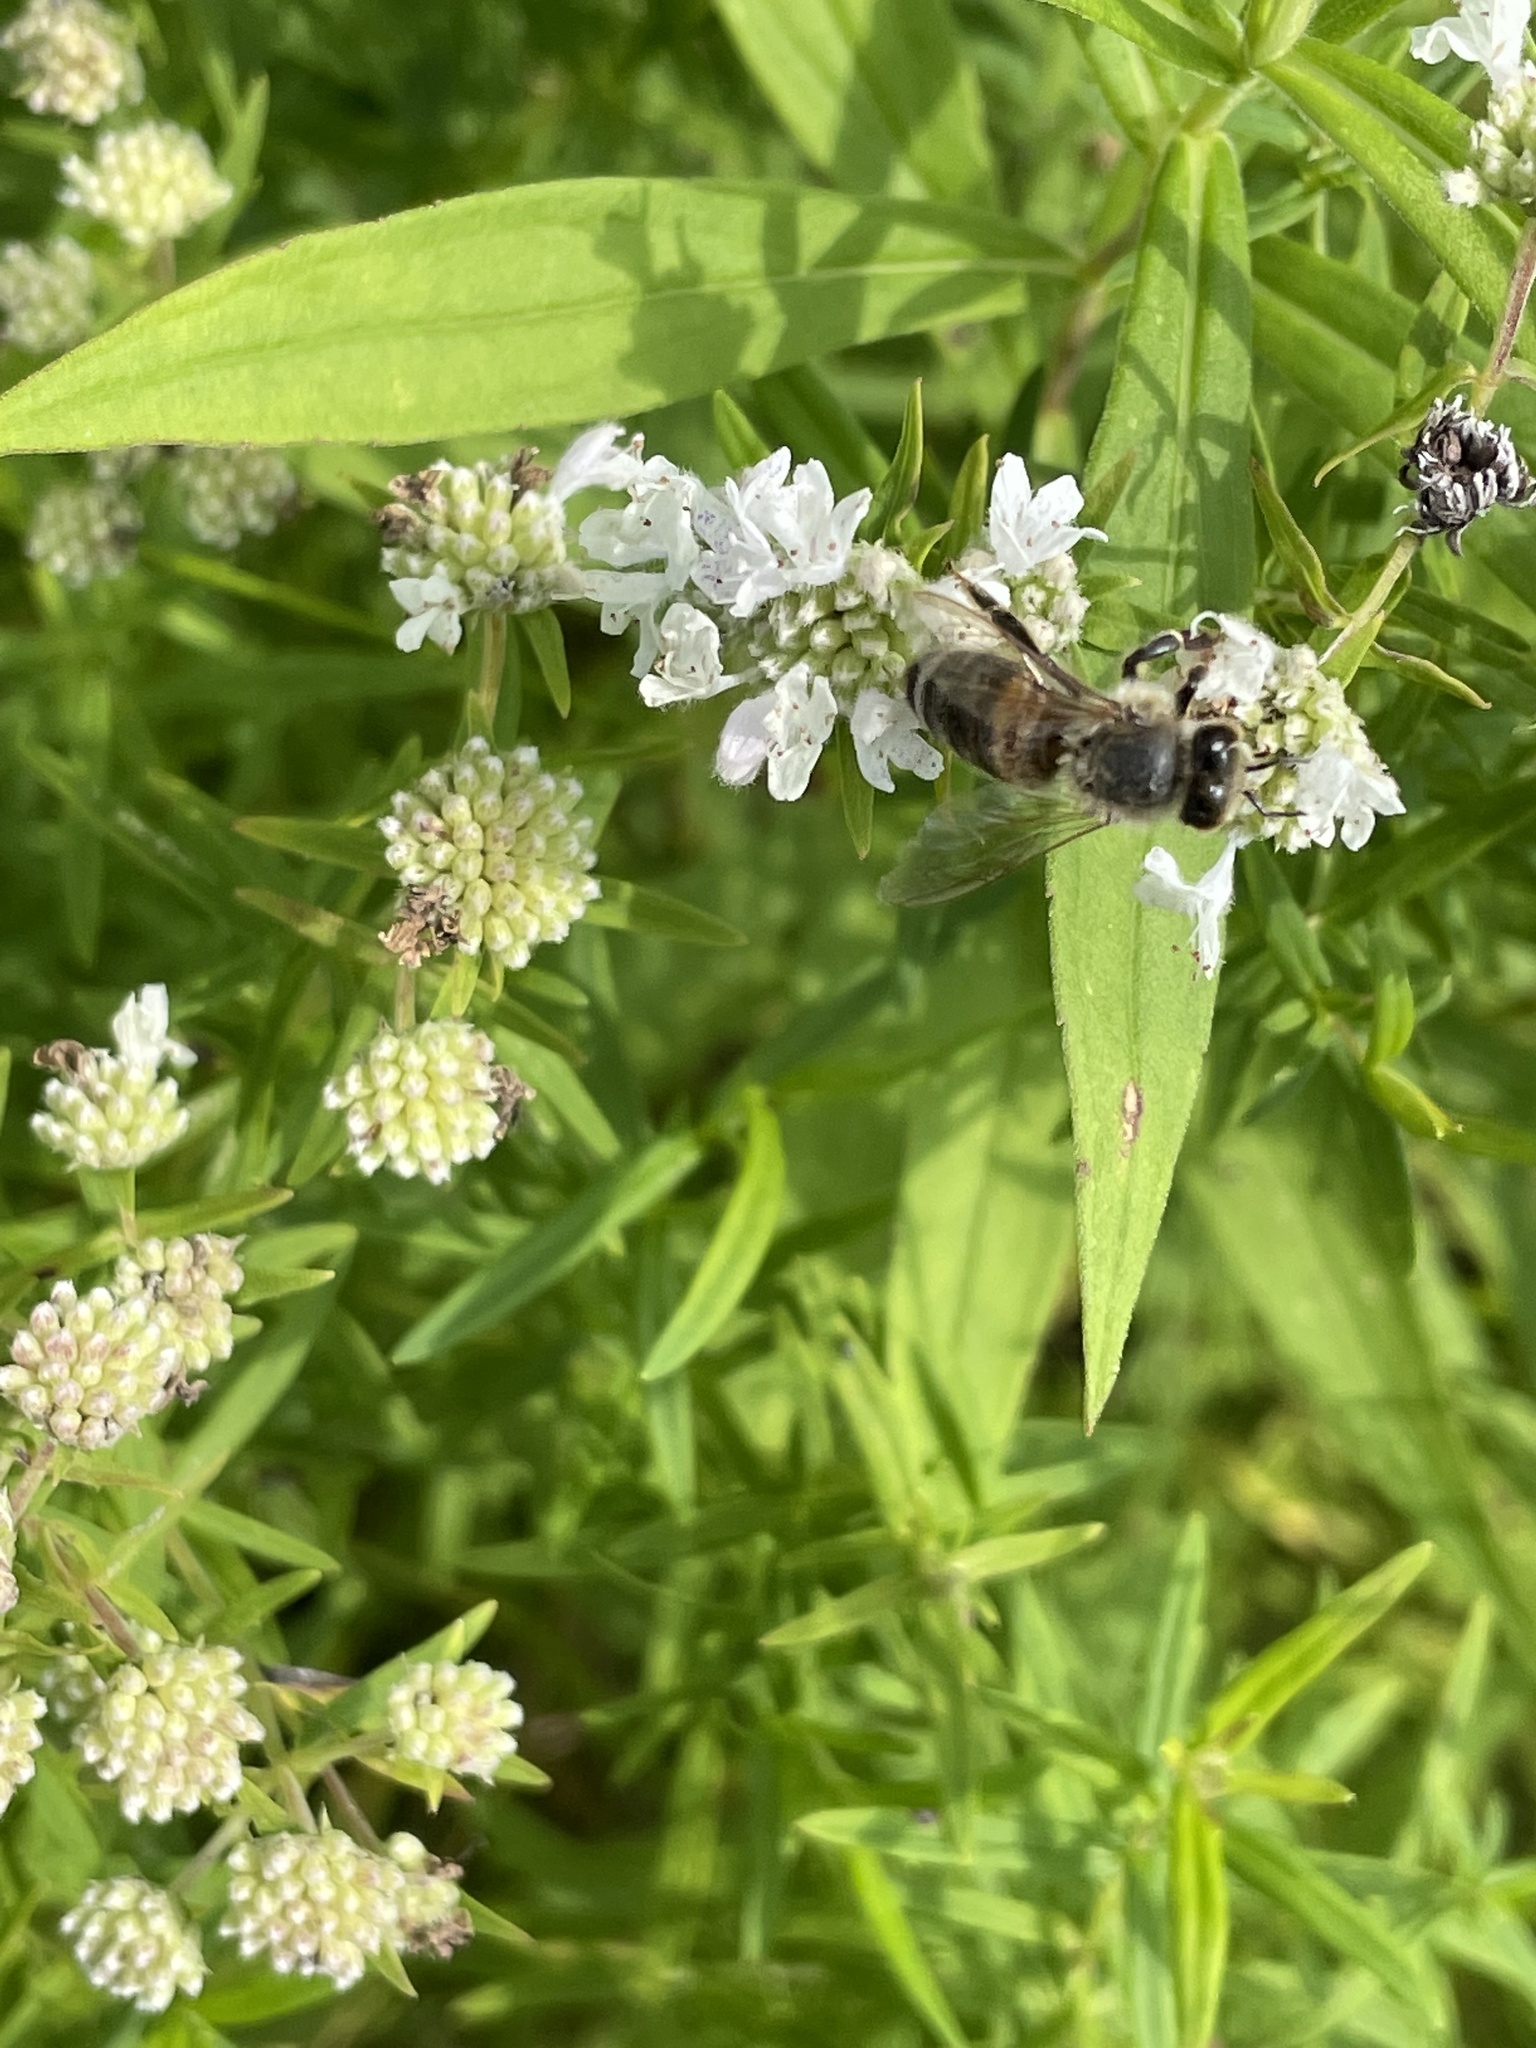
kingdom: Animalia
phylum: Arthropoda
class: Insecta
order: Hymenoptera
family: Apidae
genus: Apis
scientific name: Apis mellifera
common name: Honey bee
